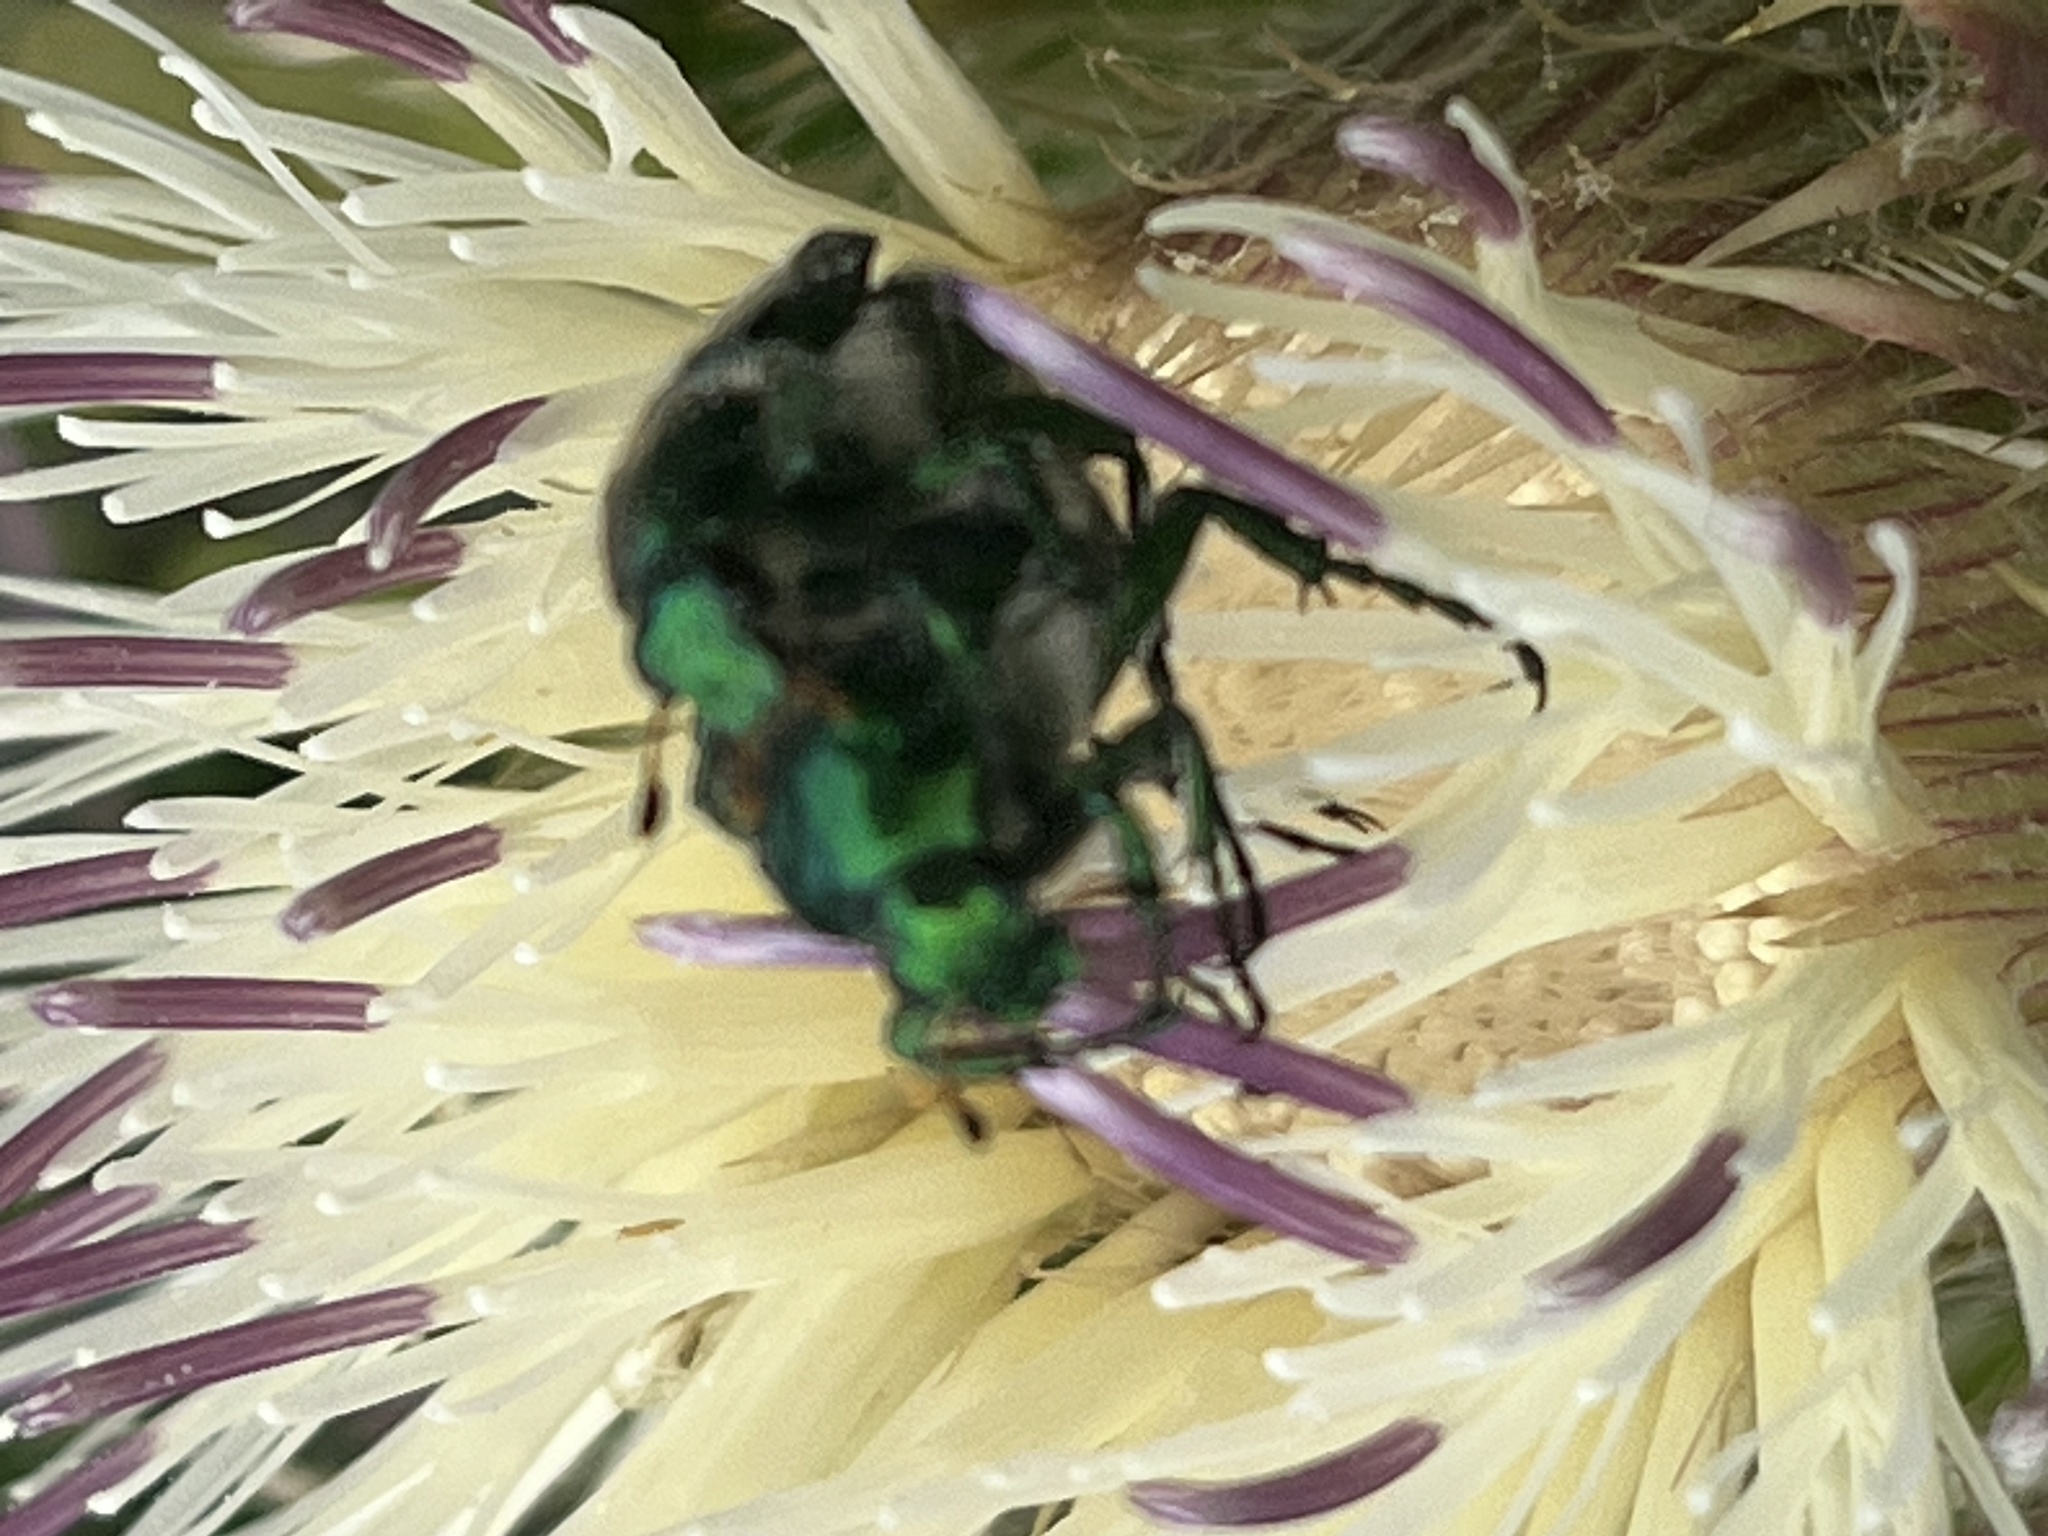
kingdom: Animalia
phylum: Arthropoda
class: Insecta
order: Coleoptera
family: Scarabaeidae
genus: Trichiotinus
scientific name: Trichiotinus lunulatus
